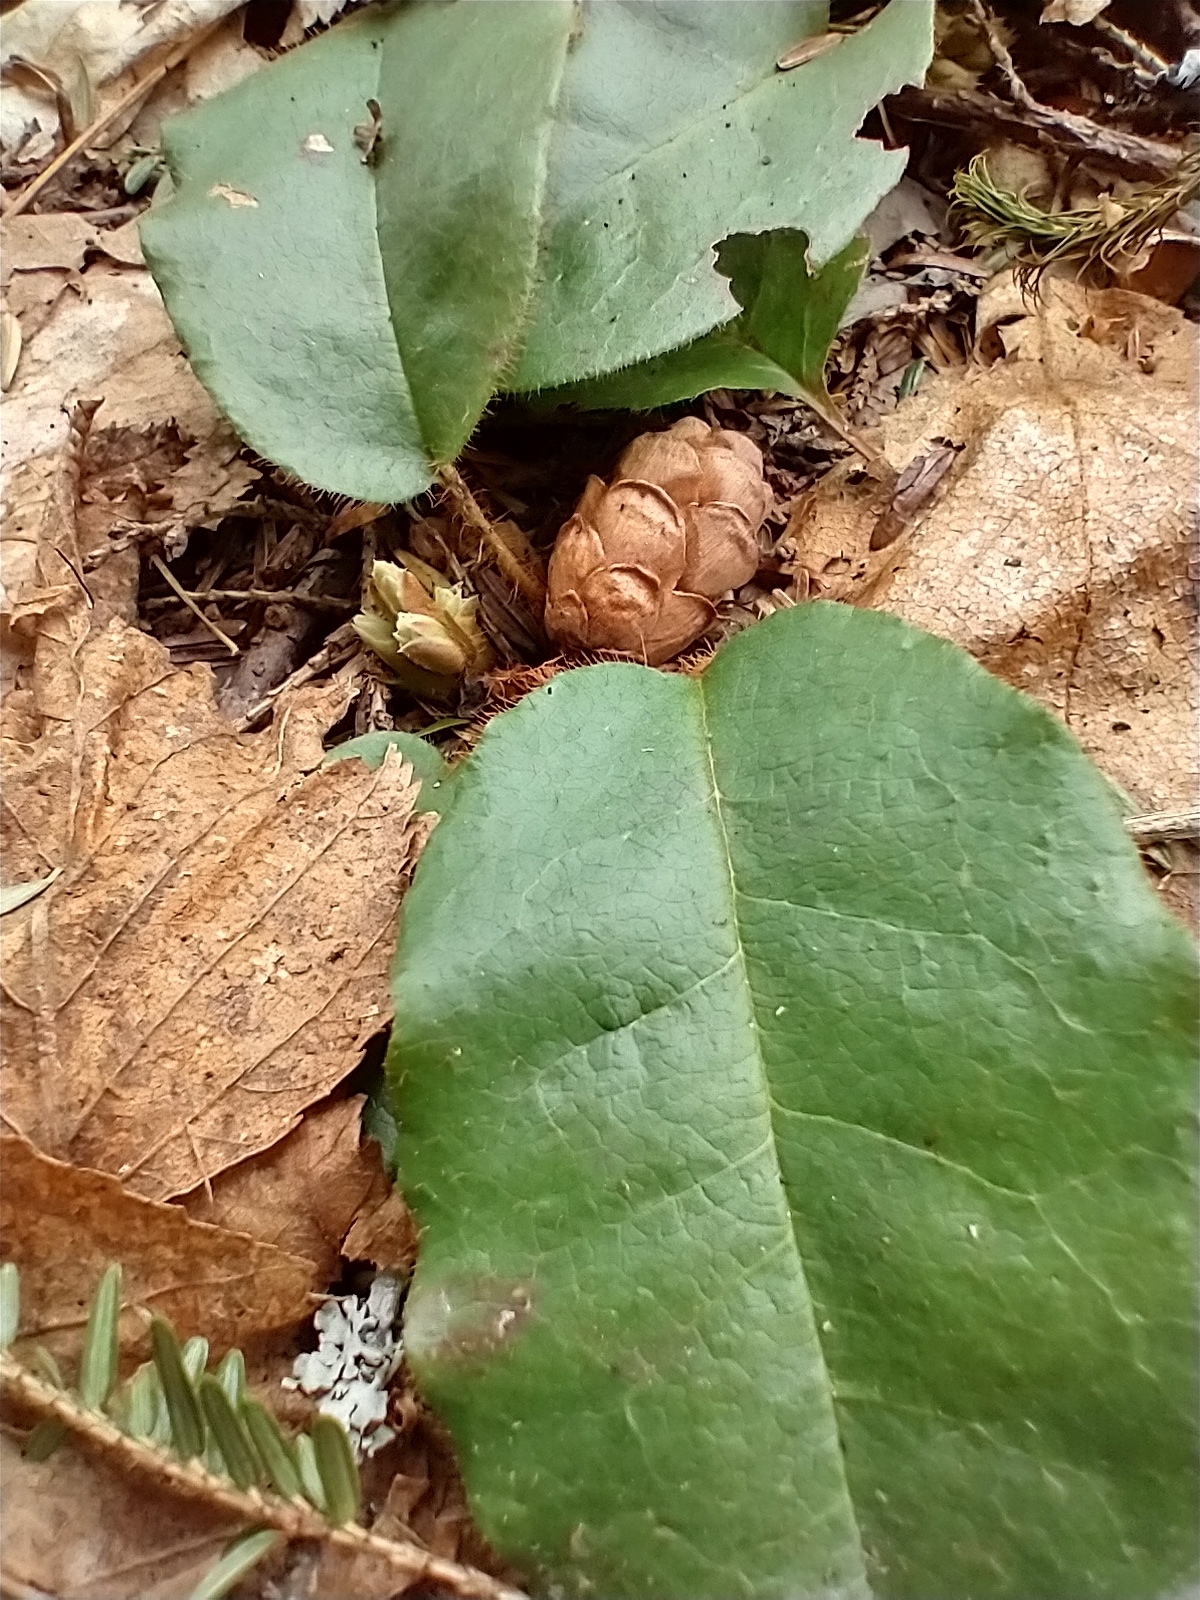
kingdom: Plantae
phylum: Tracheophyta
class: Magnoliopsida
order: Ericales
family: Ericaceae
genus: Epigaea
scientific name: Epigaea repens
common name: Gravelroot
